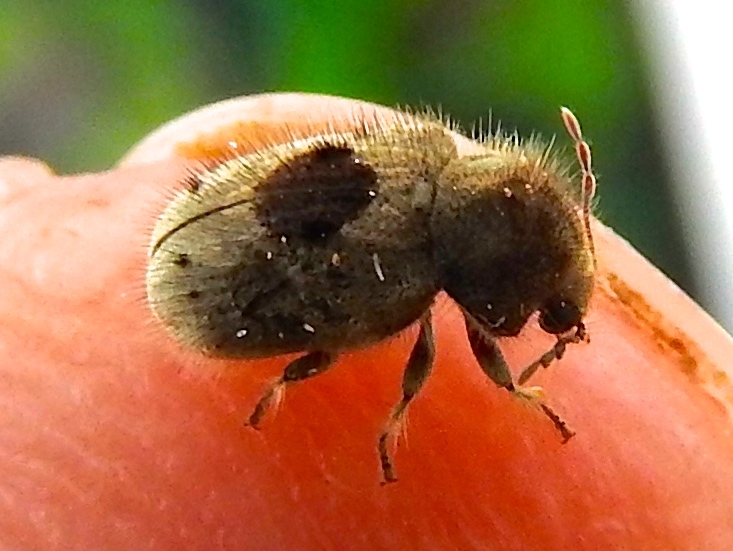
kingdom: Animalia
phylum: Arthropoda
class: Insecta
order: Coleoptera
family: Anobiidae
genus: Trichodesma
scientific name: Trichodesma
